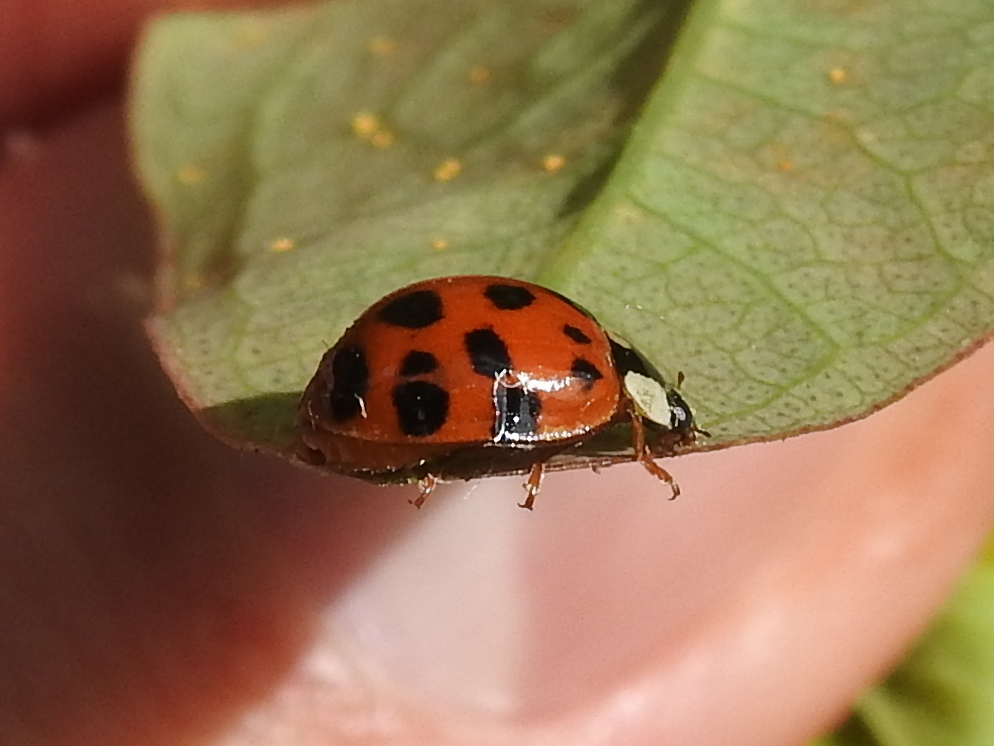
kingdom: Animalia
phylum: Arthropoda
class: Insecta
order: Coleoptera
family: Coccinellidae
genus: Harmonia
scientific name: Harmonia axyridis
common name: Harlequin ladybird
